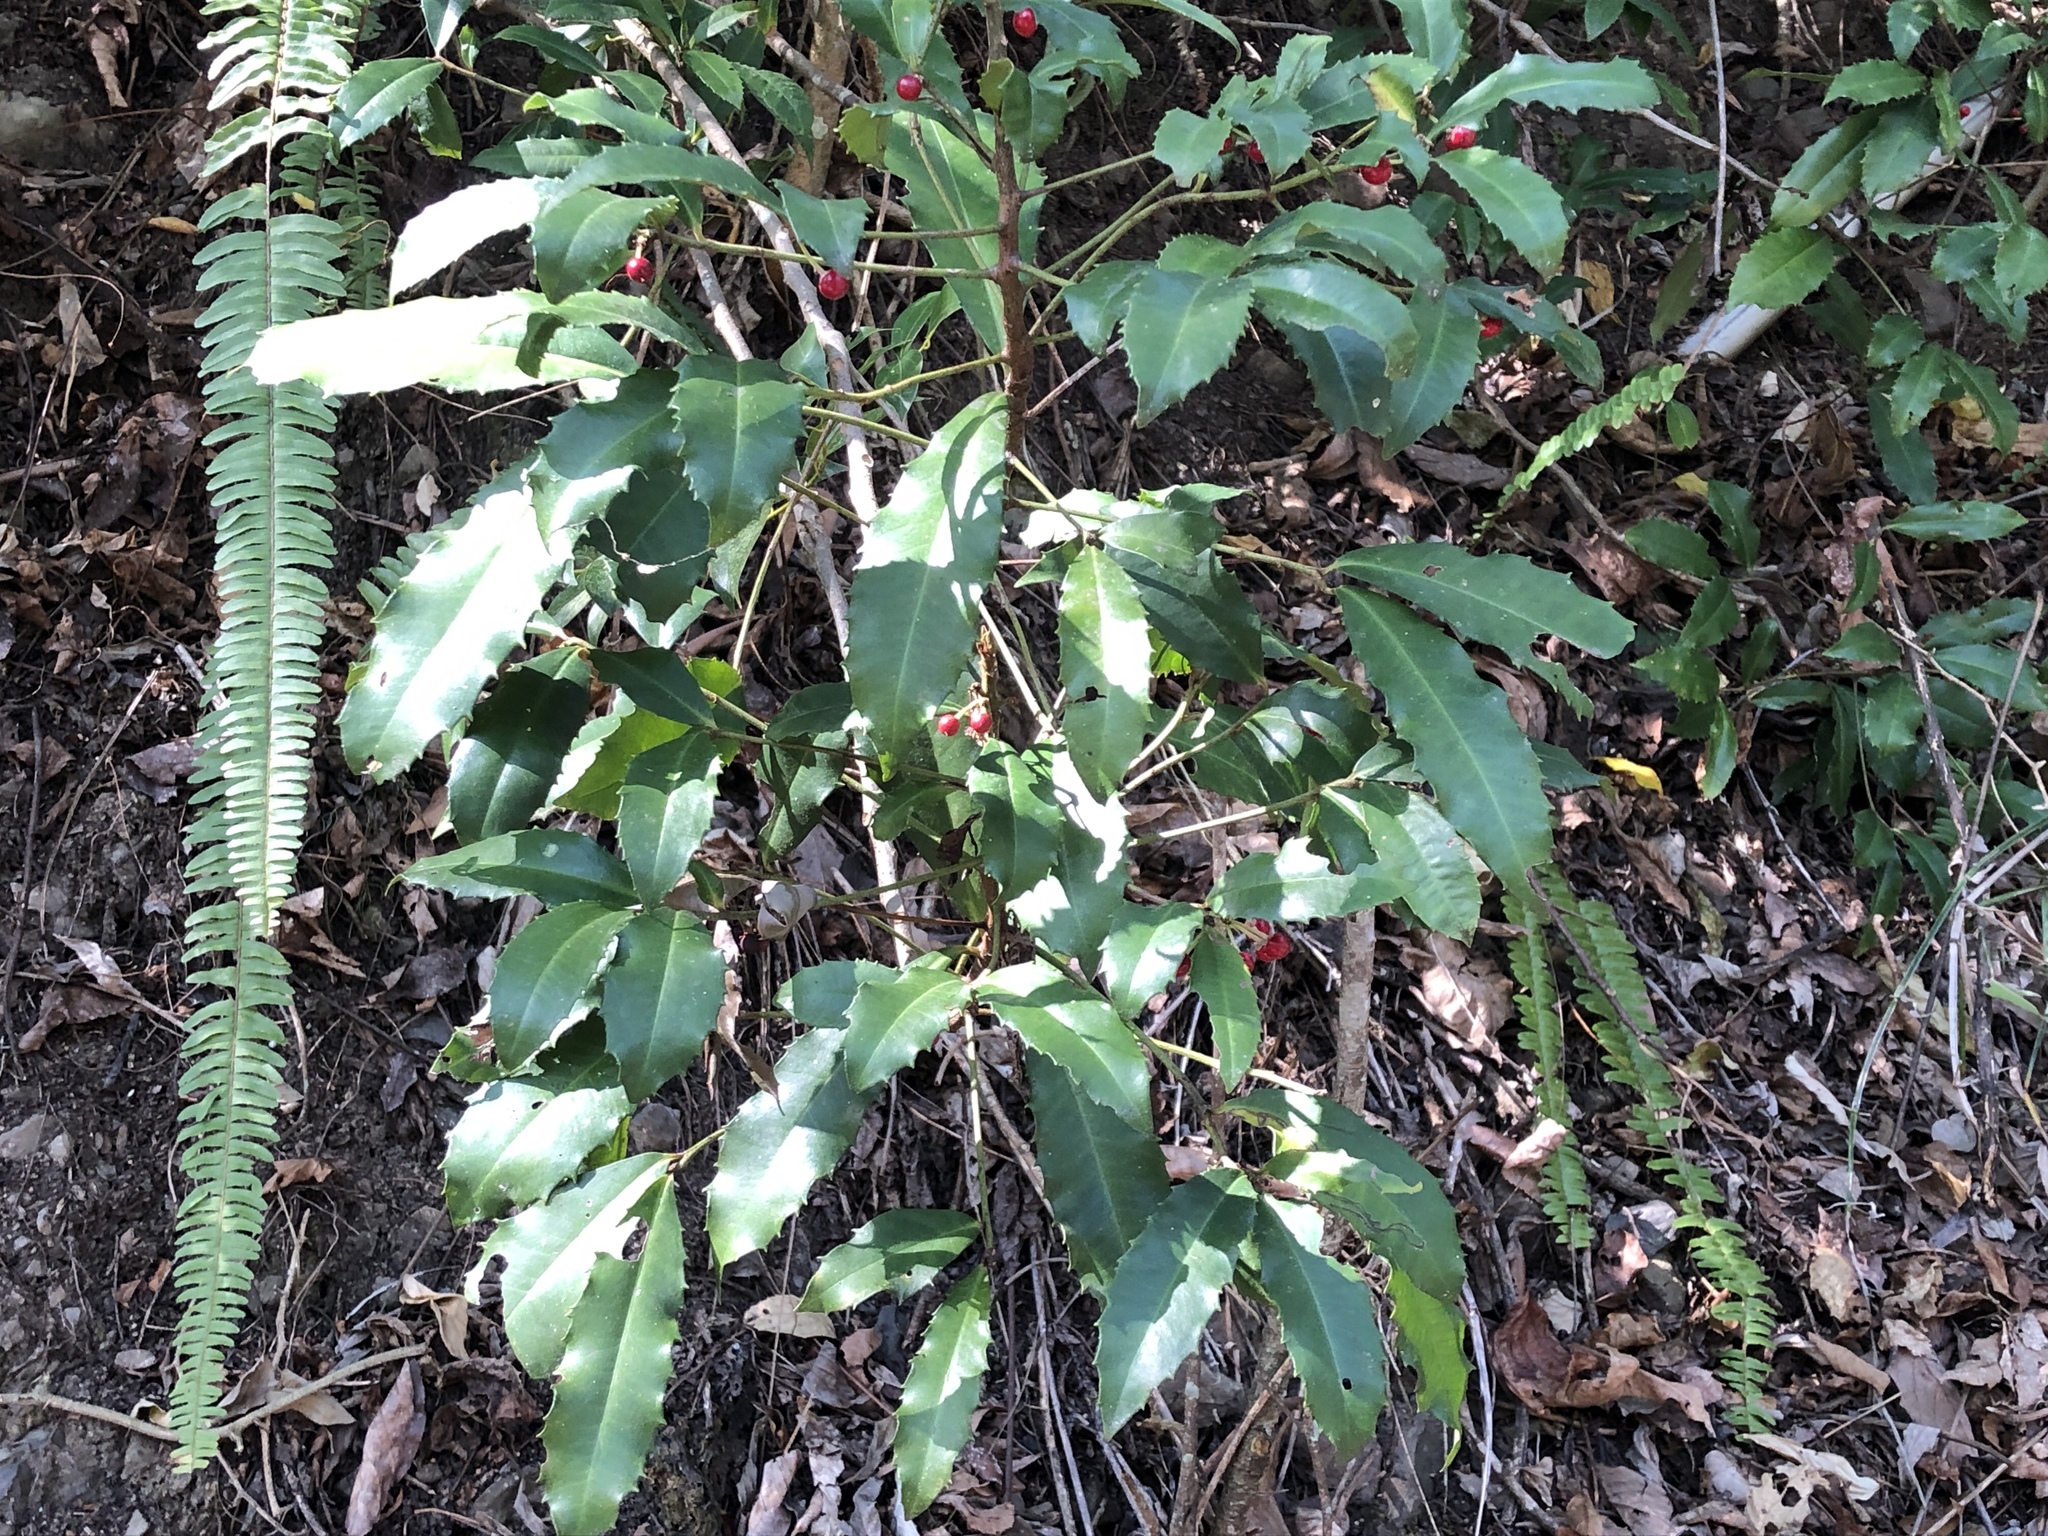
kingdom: Plantae
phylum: Tracheophyta
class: Magnoliopsida
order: Ericales
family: Primulaceae
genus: Ardisia
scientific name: Ardisia cornudentata
